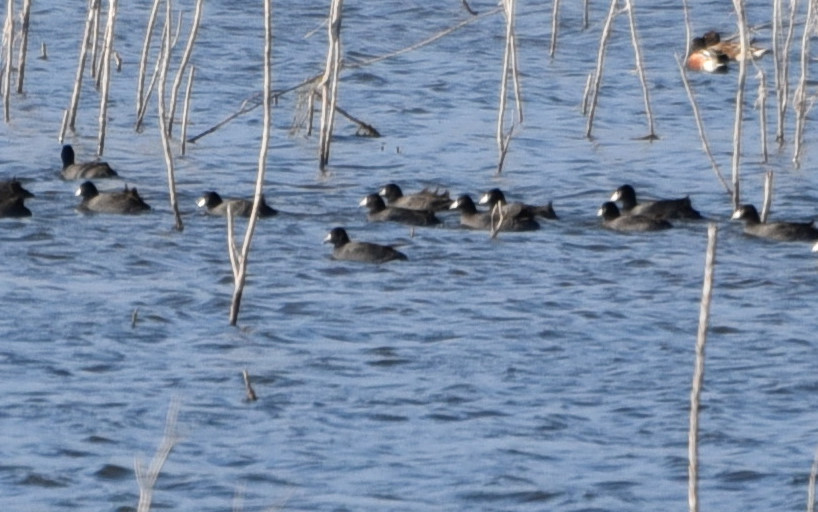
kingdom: Animalia
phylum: Chordata
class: Aves
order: Gruiformes
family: Rallidae
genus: Fulica
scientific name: Fulica americana
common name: American coot
